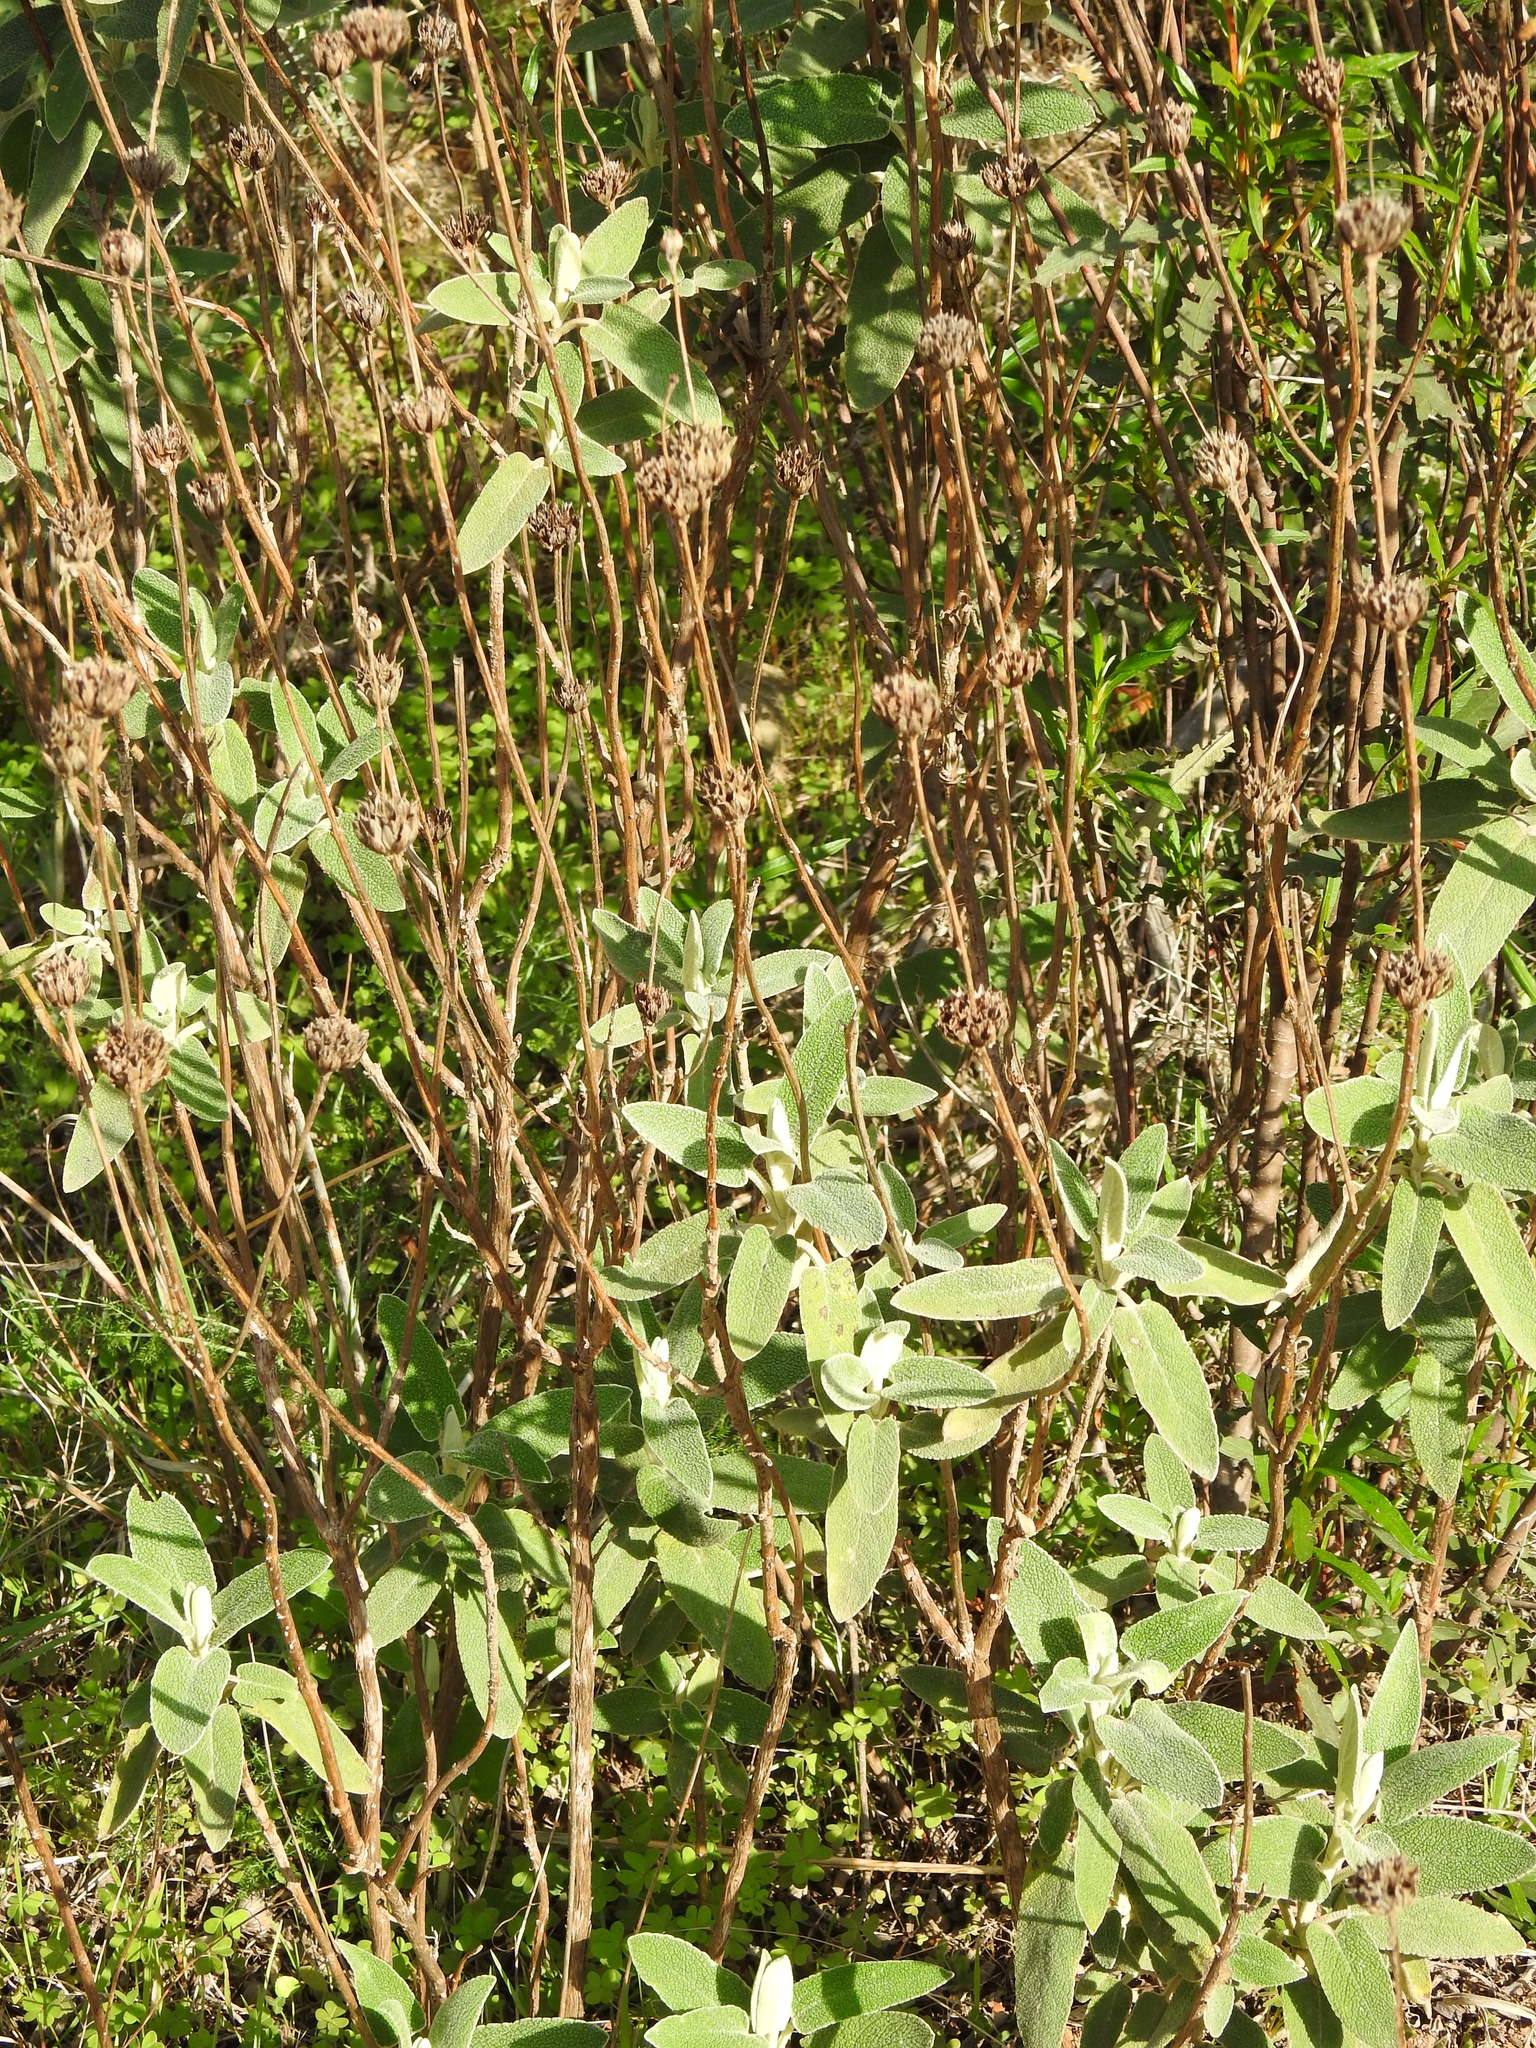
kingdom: Plantae
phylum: Tracheophyta
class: Magnoliopsida
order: Lamiales
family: Lamiaceae
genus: Phlomis
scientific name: Phlomis purpurea
